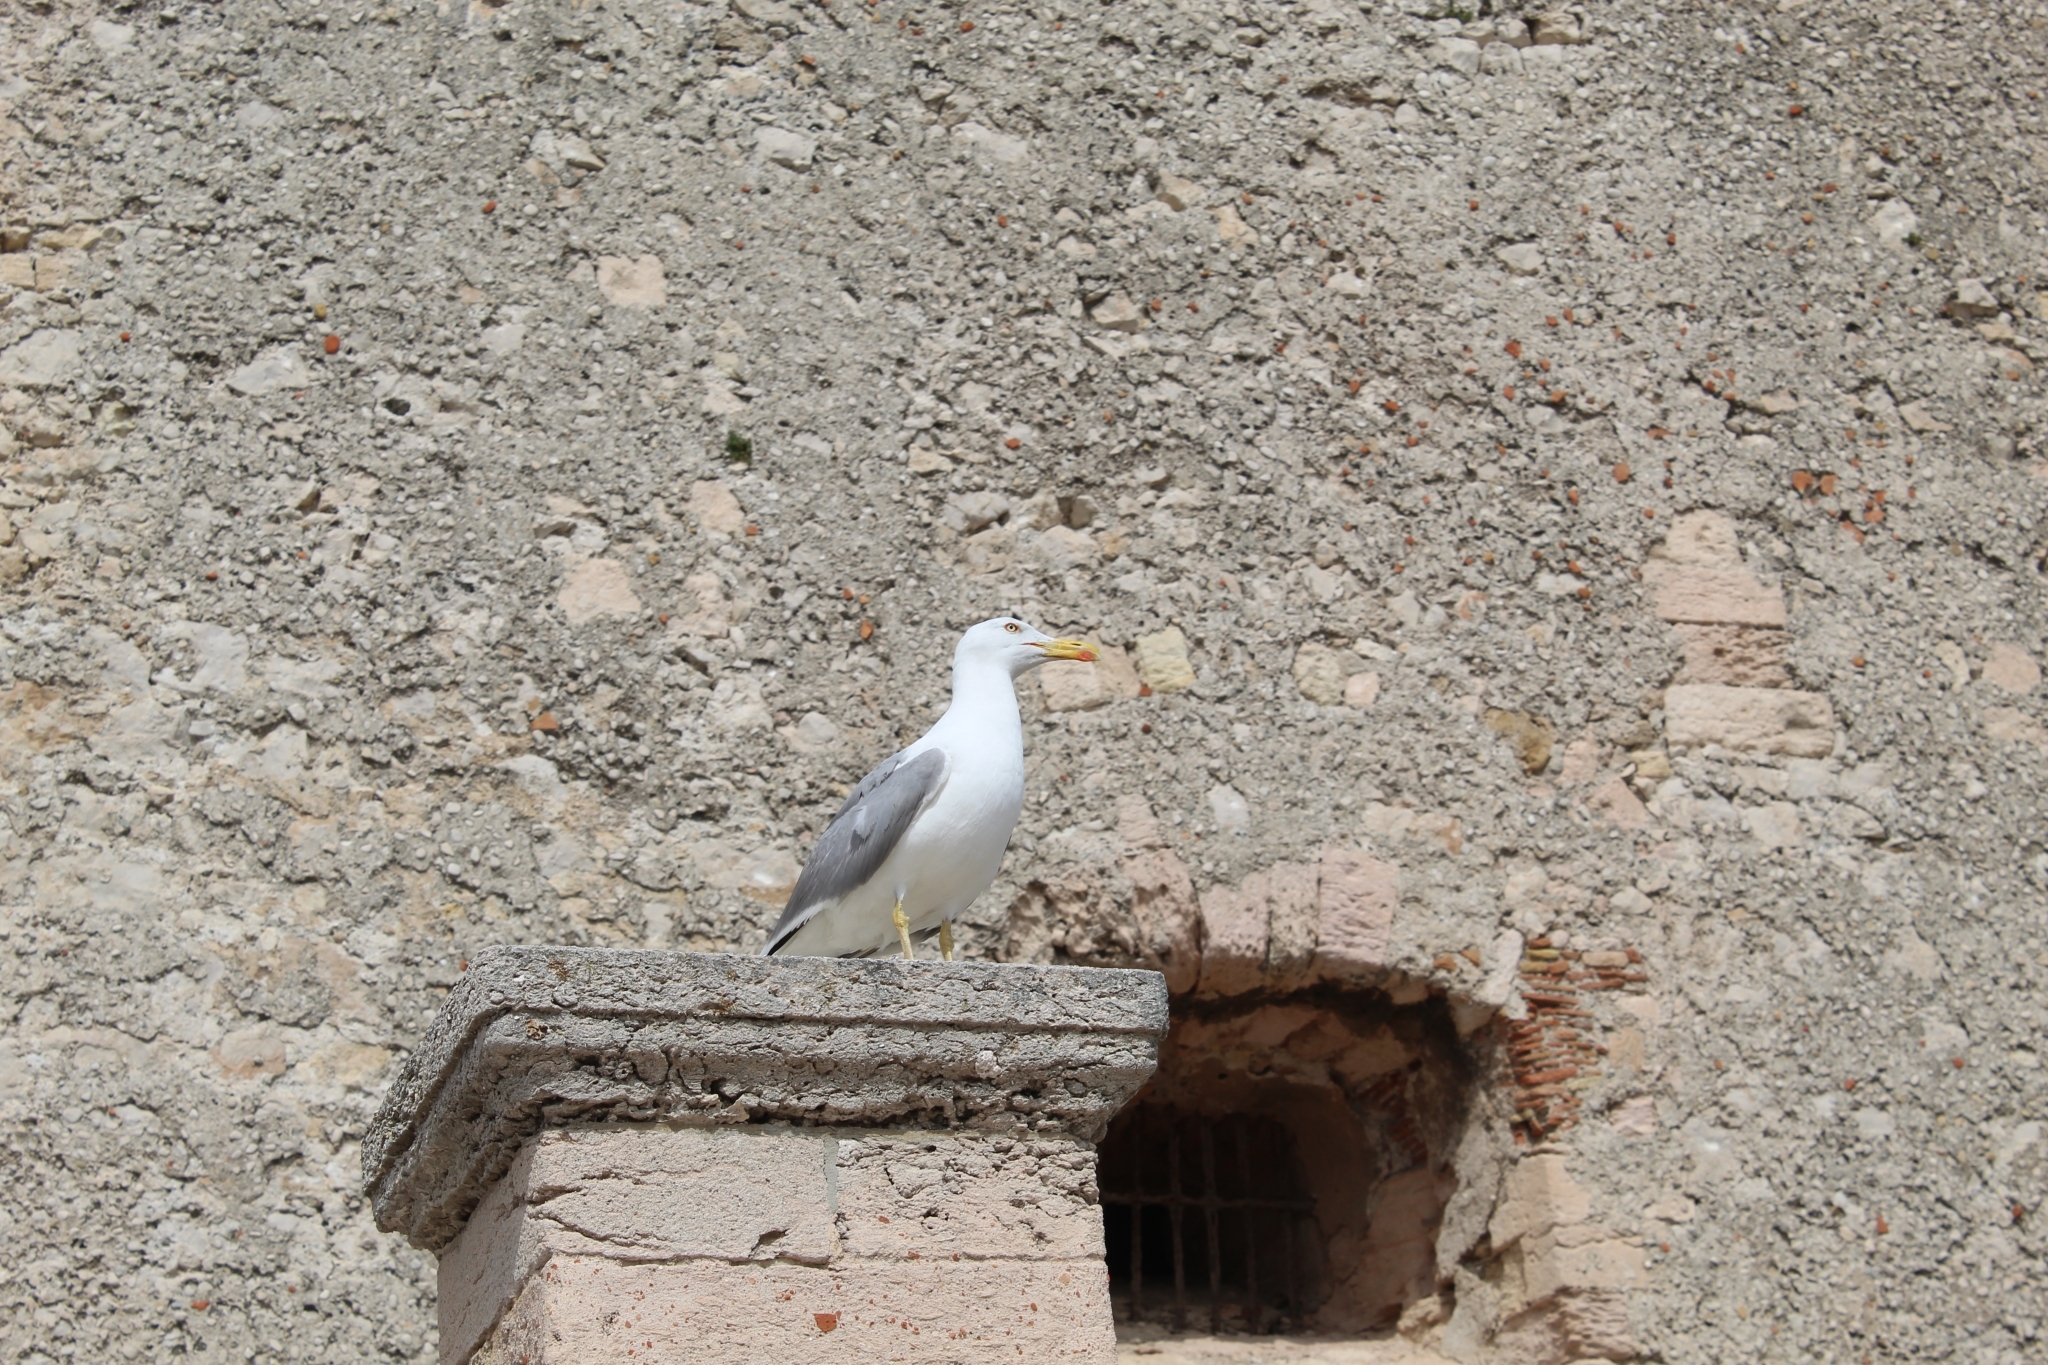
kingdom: Animalia
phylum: Chordata
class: Aves
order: Charadriiformes
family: Laridae
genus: Larus
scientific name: Larus michahellis
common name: Yellow-legged gull
